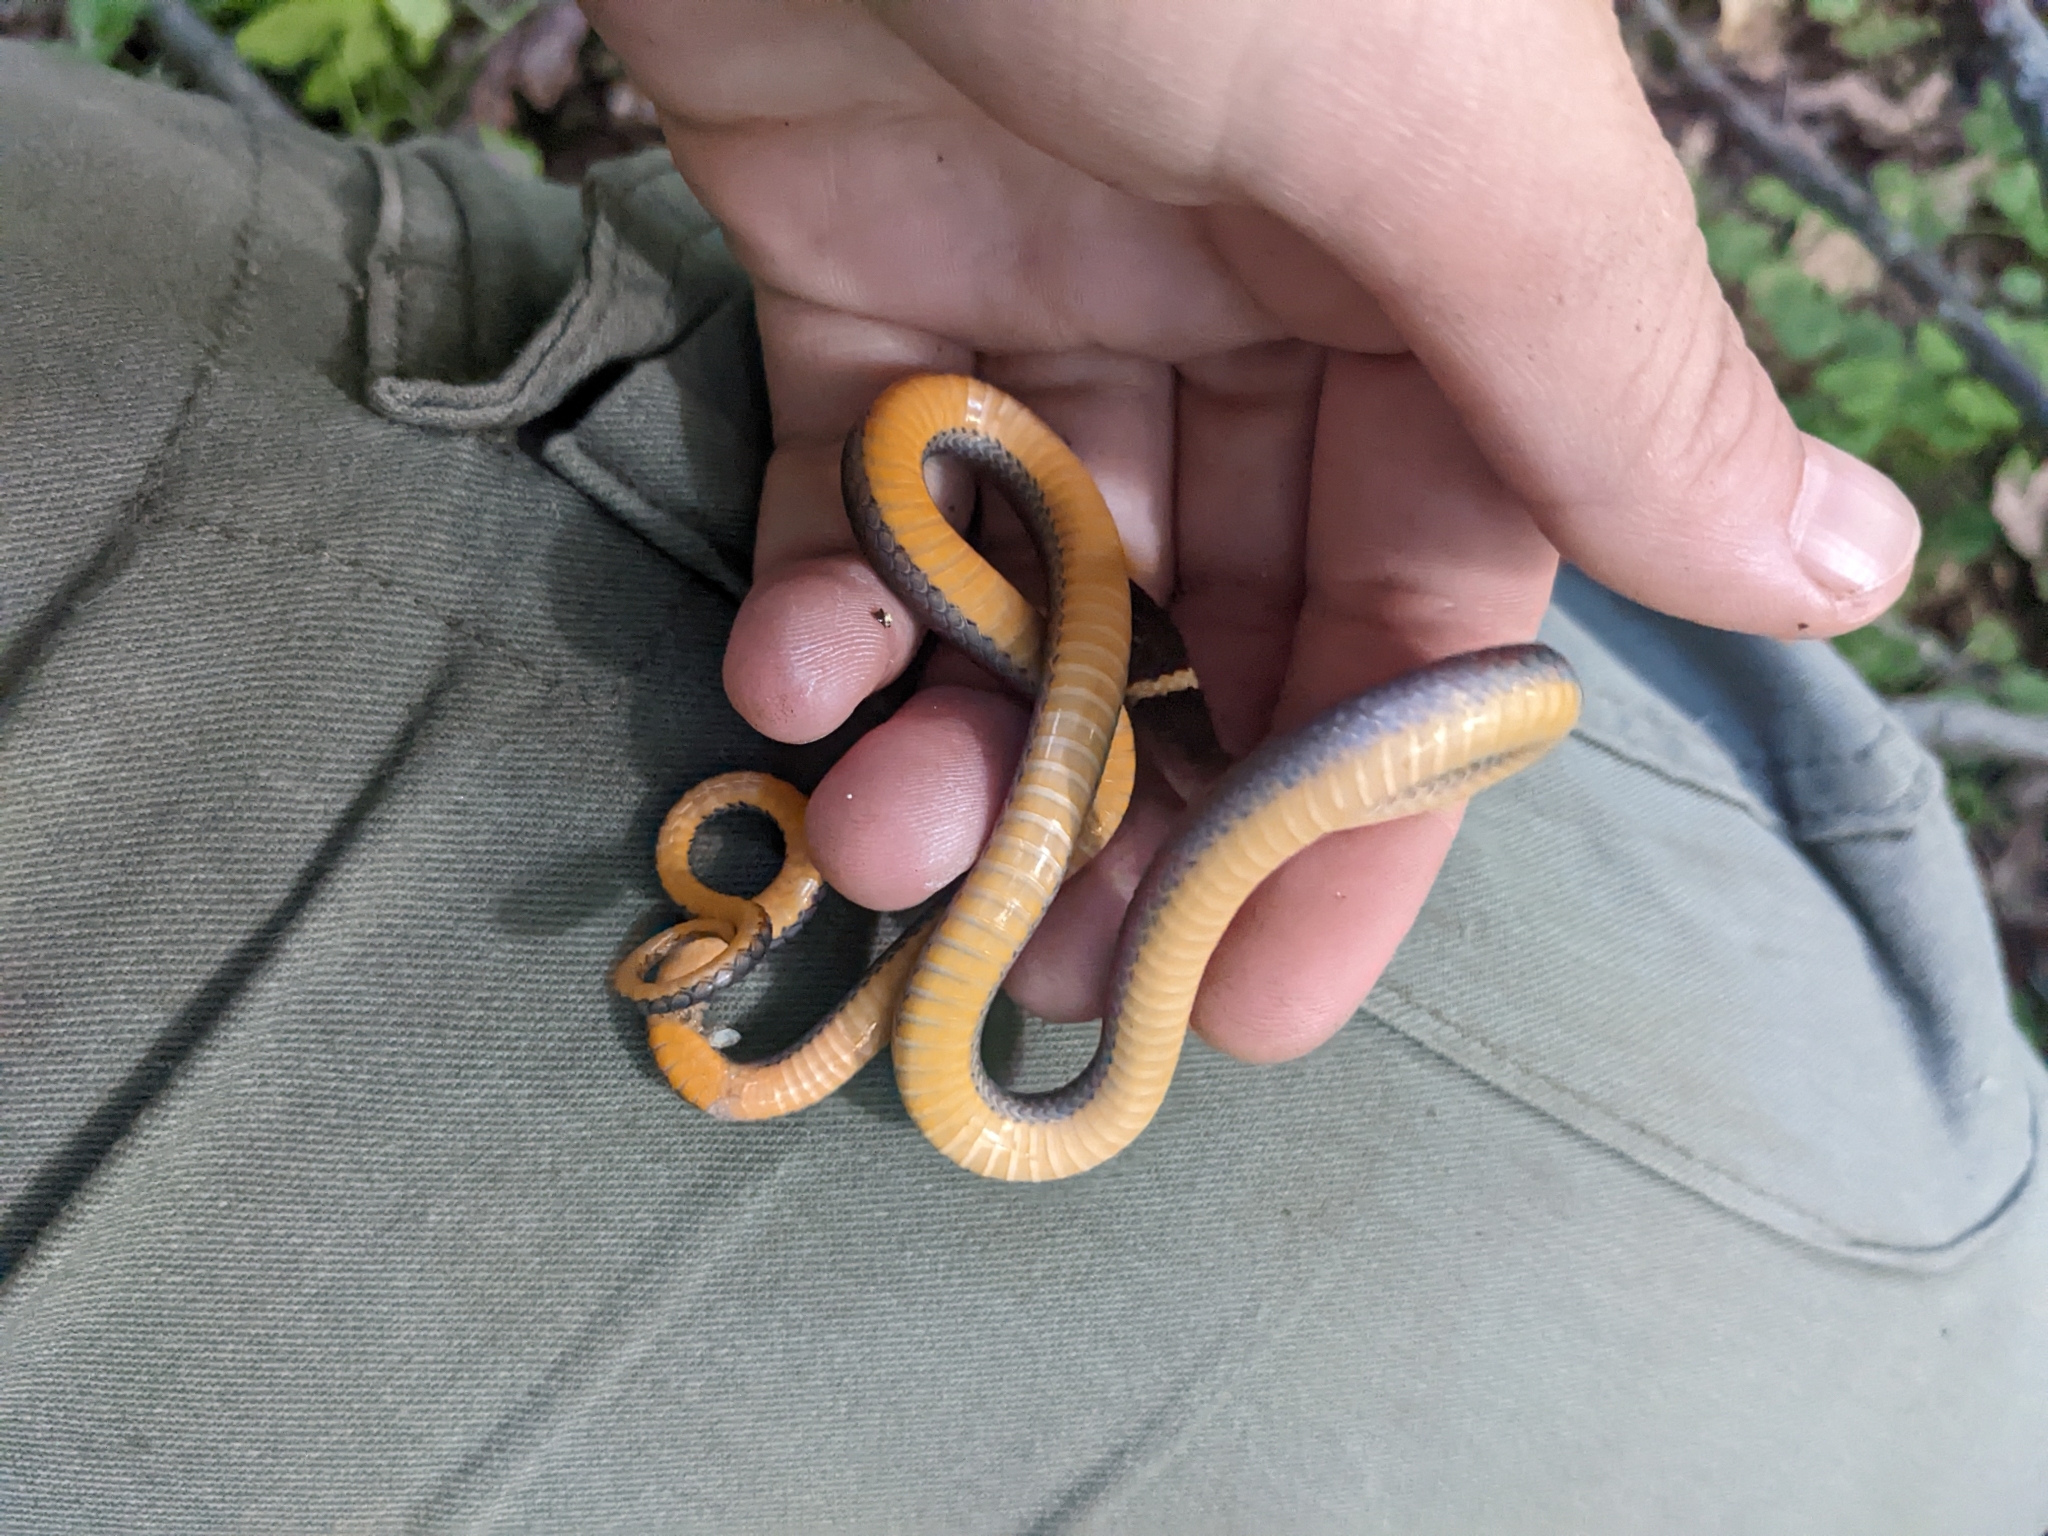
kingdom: Animalia
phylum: Chordata
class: Squamata
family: Colubridae
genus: Diadophis
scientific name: Diadophis punctatus
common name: Ringneck snake
